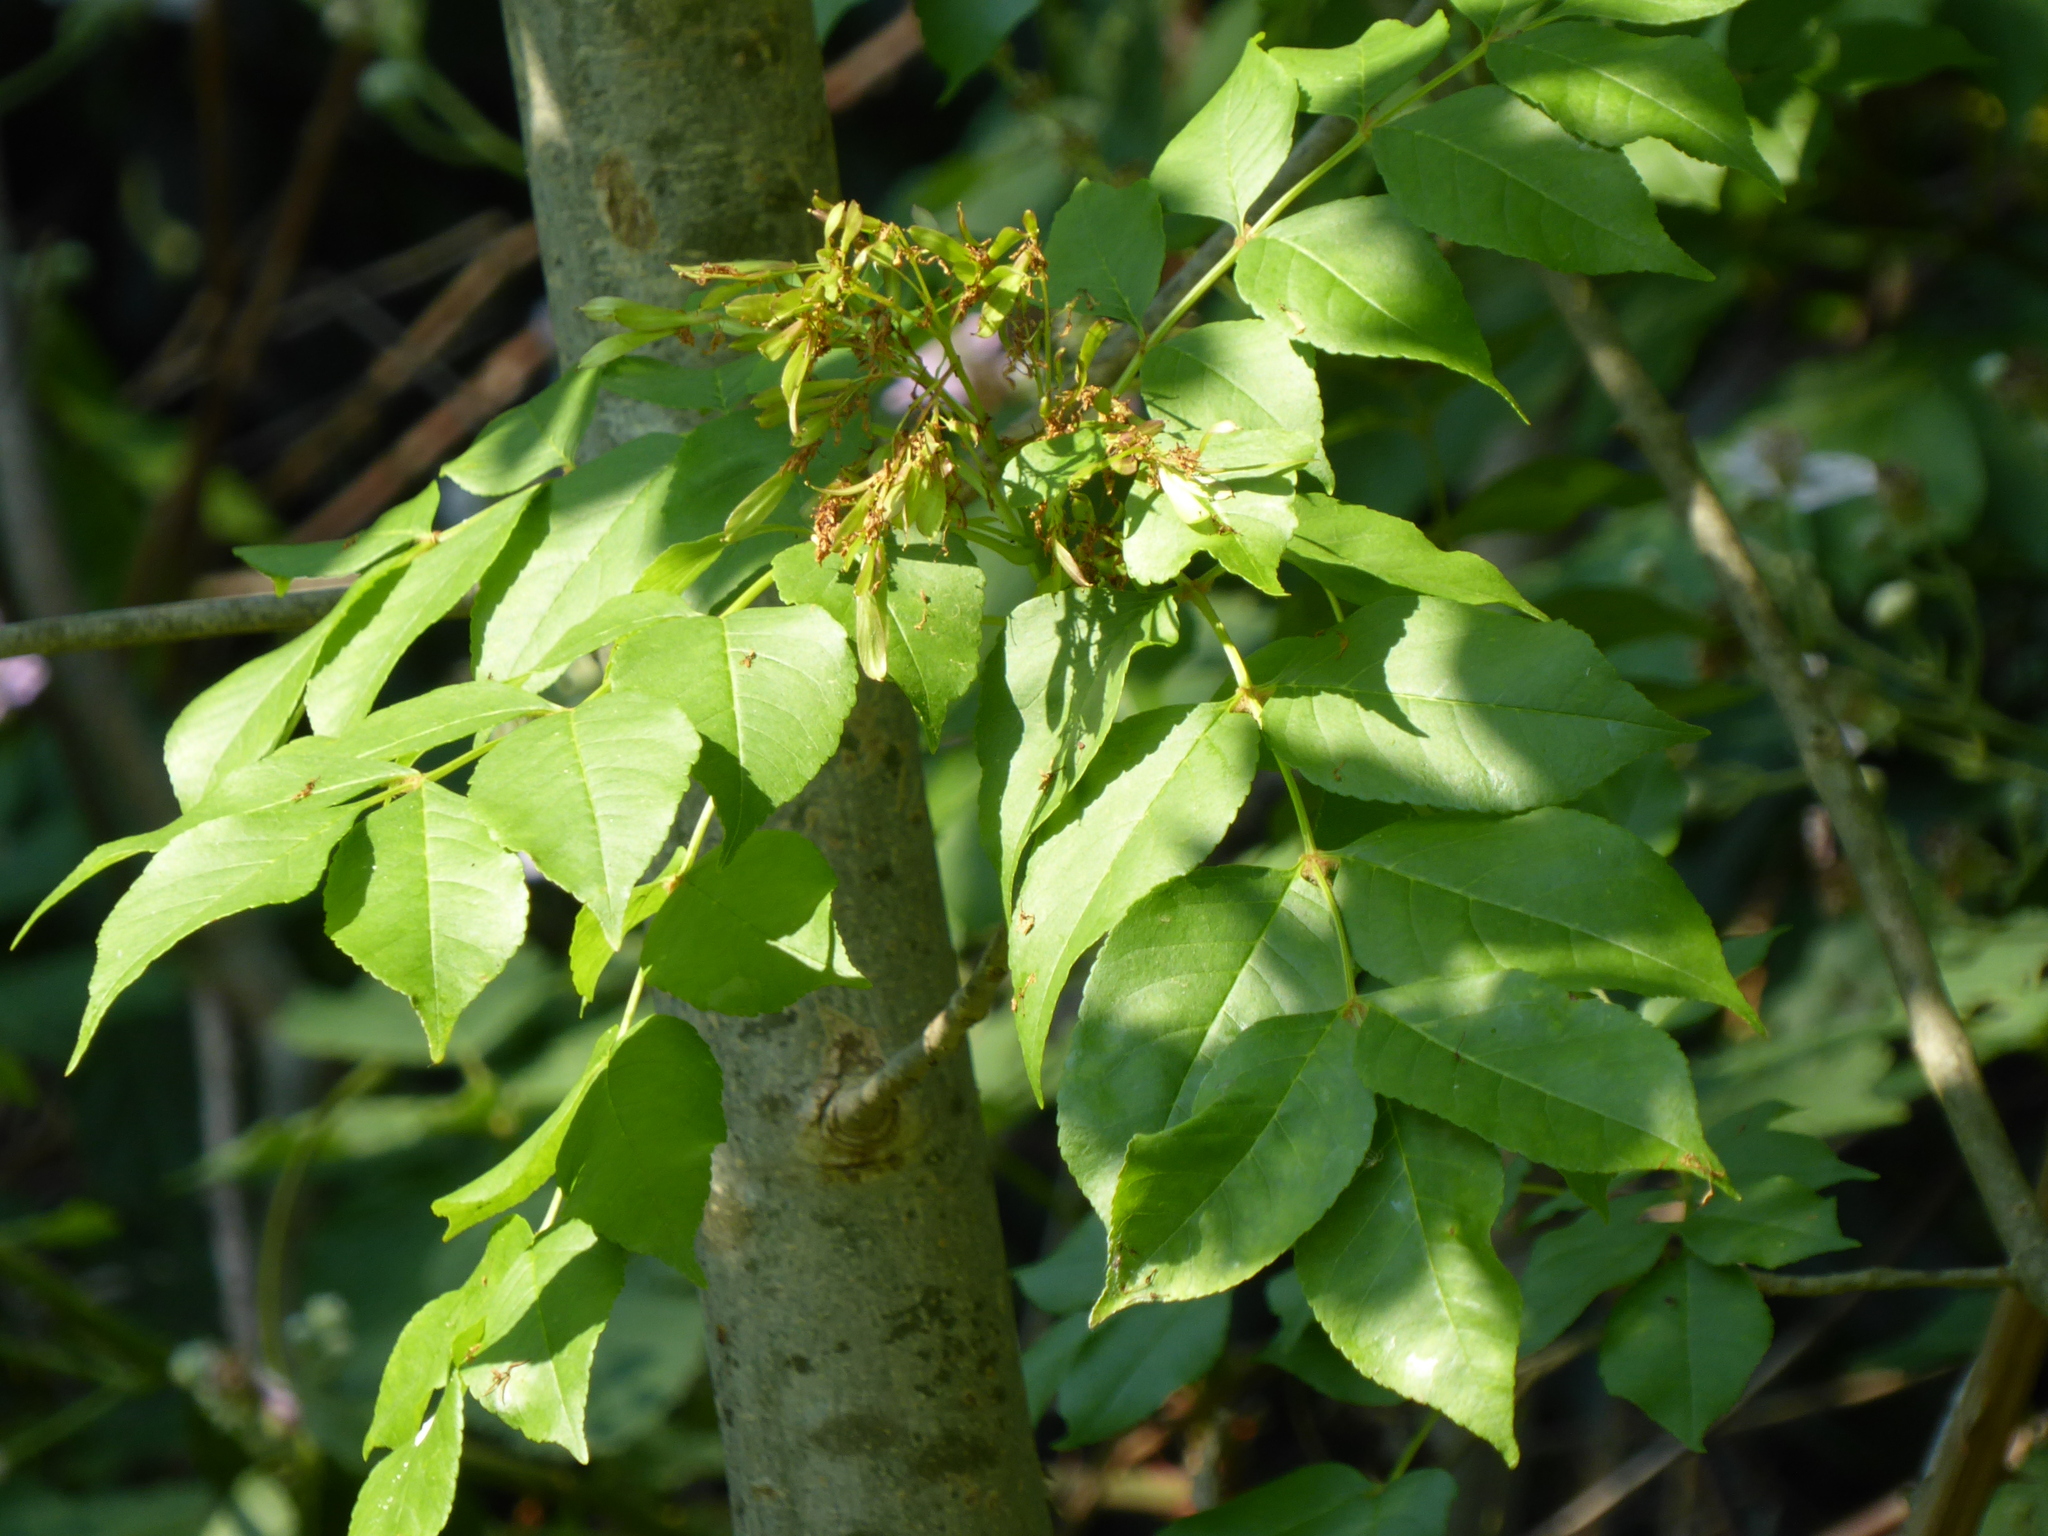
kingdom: Plantae
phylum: Tracheophyta
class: Magnoliopsida
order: Lamiales
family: Oleaceae
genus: Fraxinus
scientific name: Fraxinus excelsior
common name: European ash
